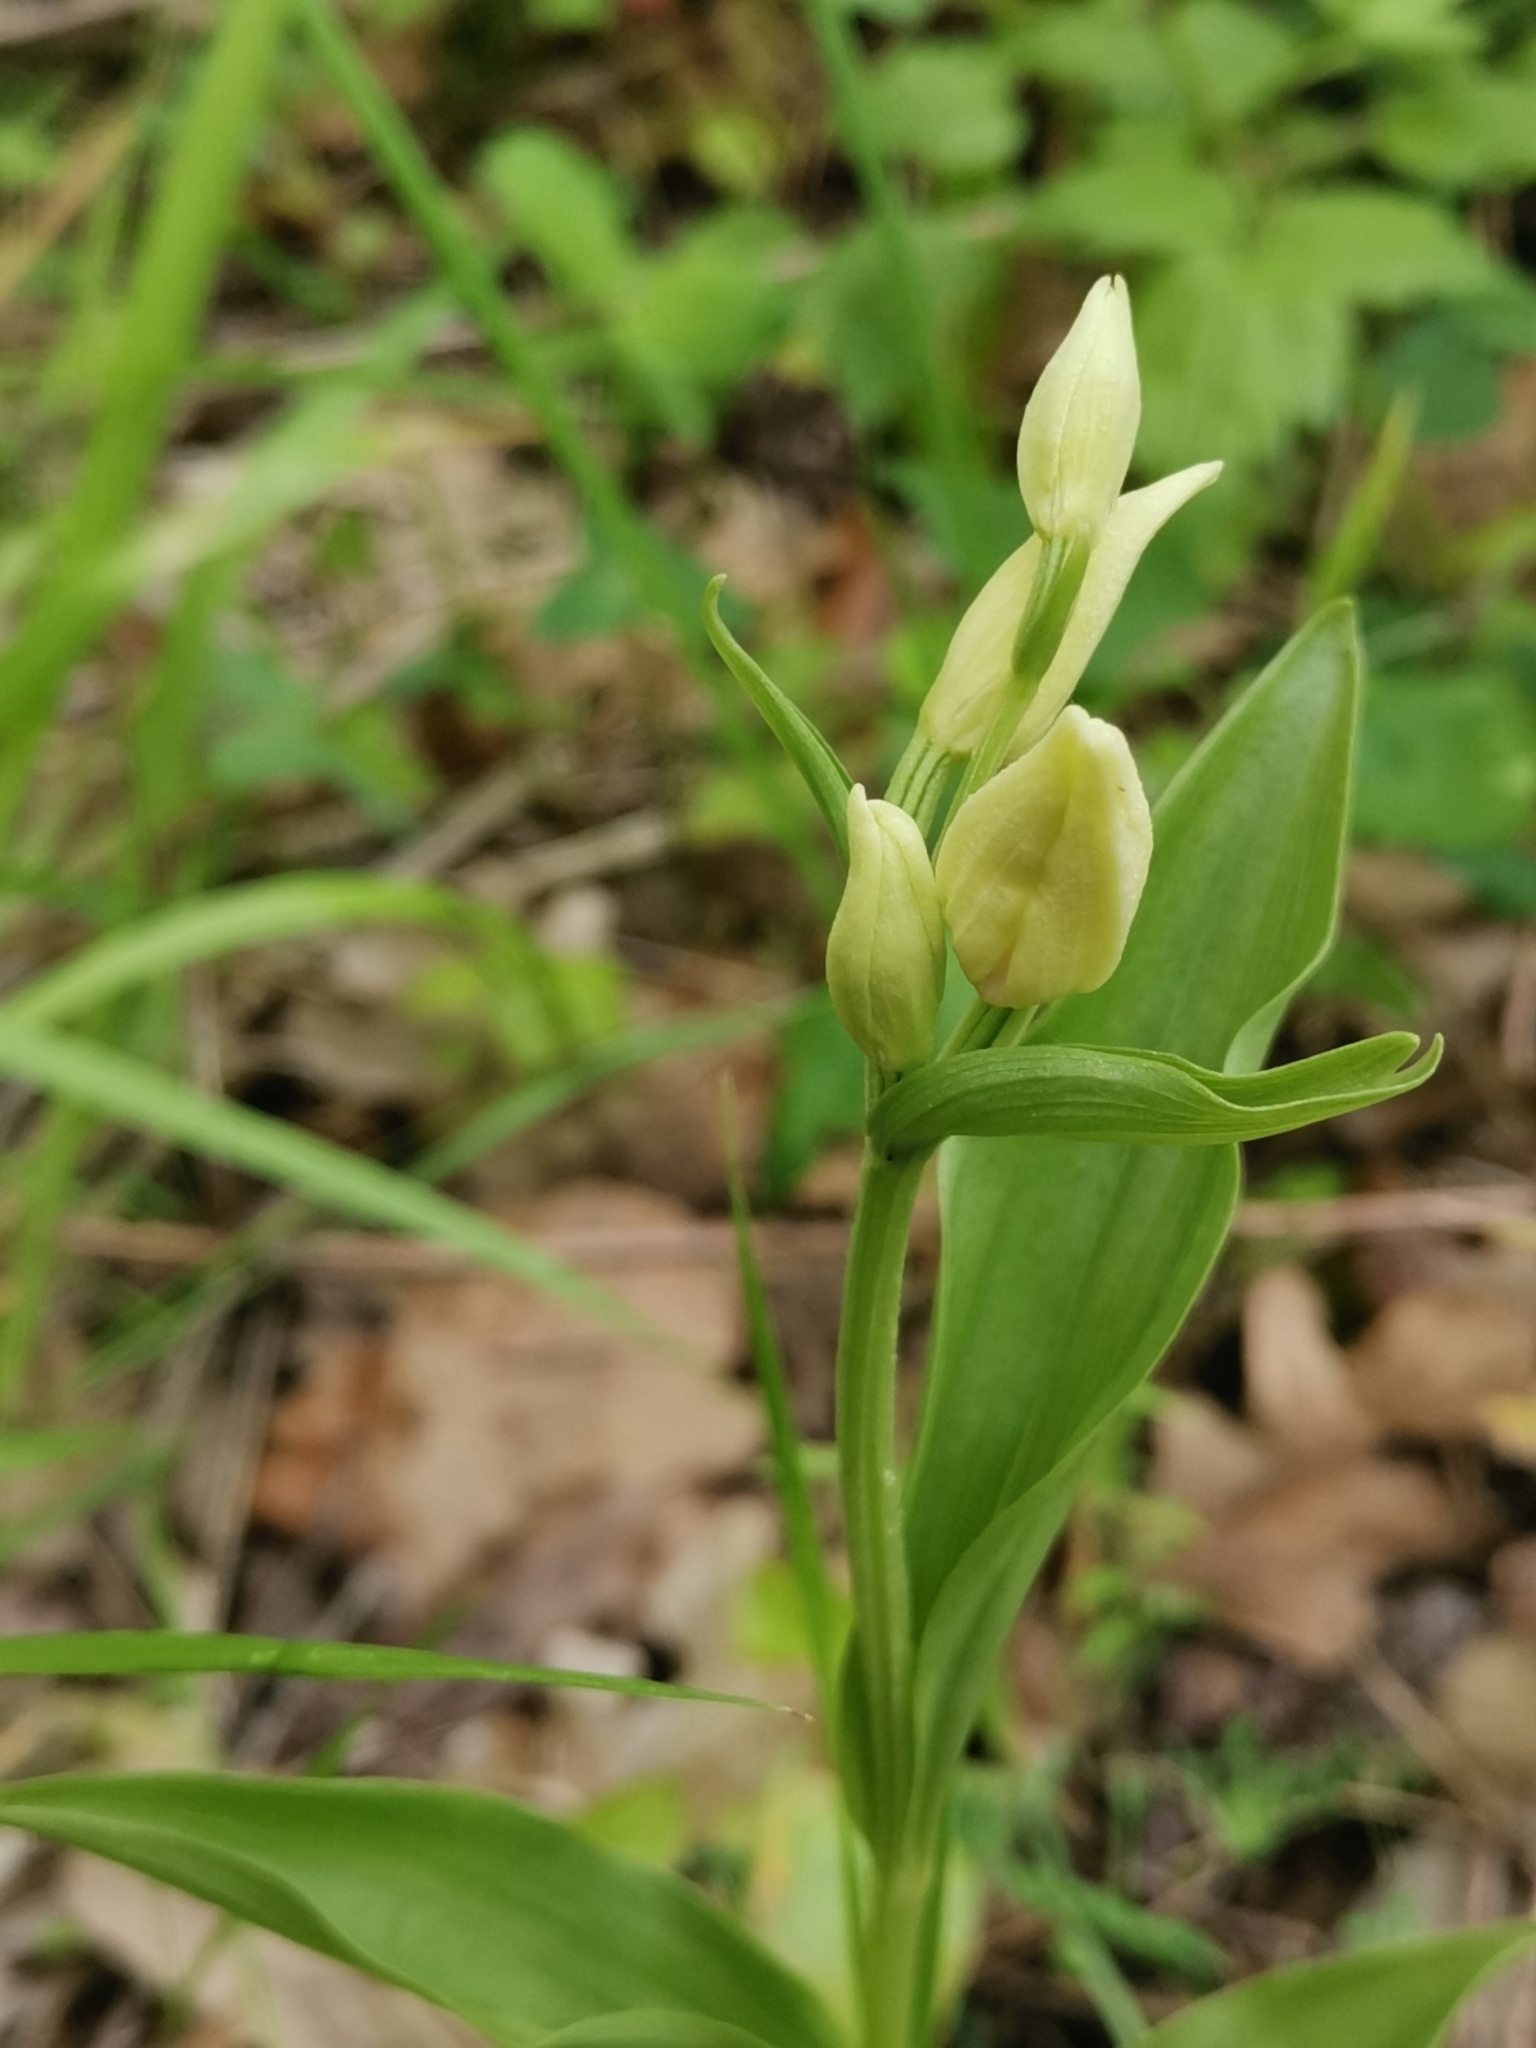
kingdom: Plantae
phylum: Tracheophyta
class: Liliopsida
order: Asparagales
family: Orchidaceae
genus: Cephalanthera
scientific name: Cephalanthera damasonium
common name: White helleborine
